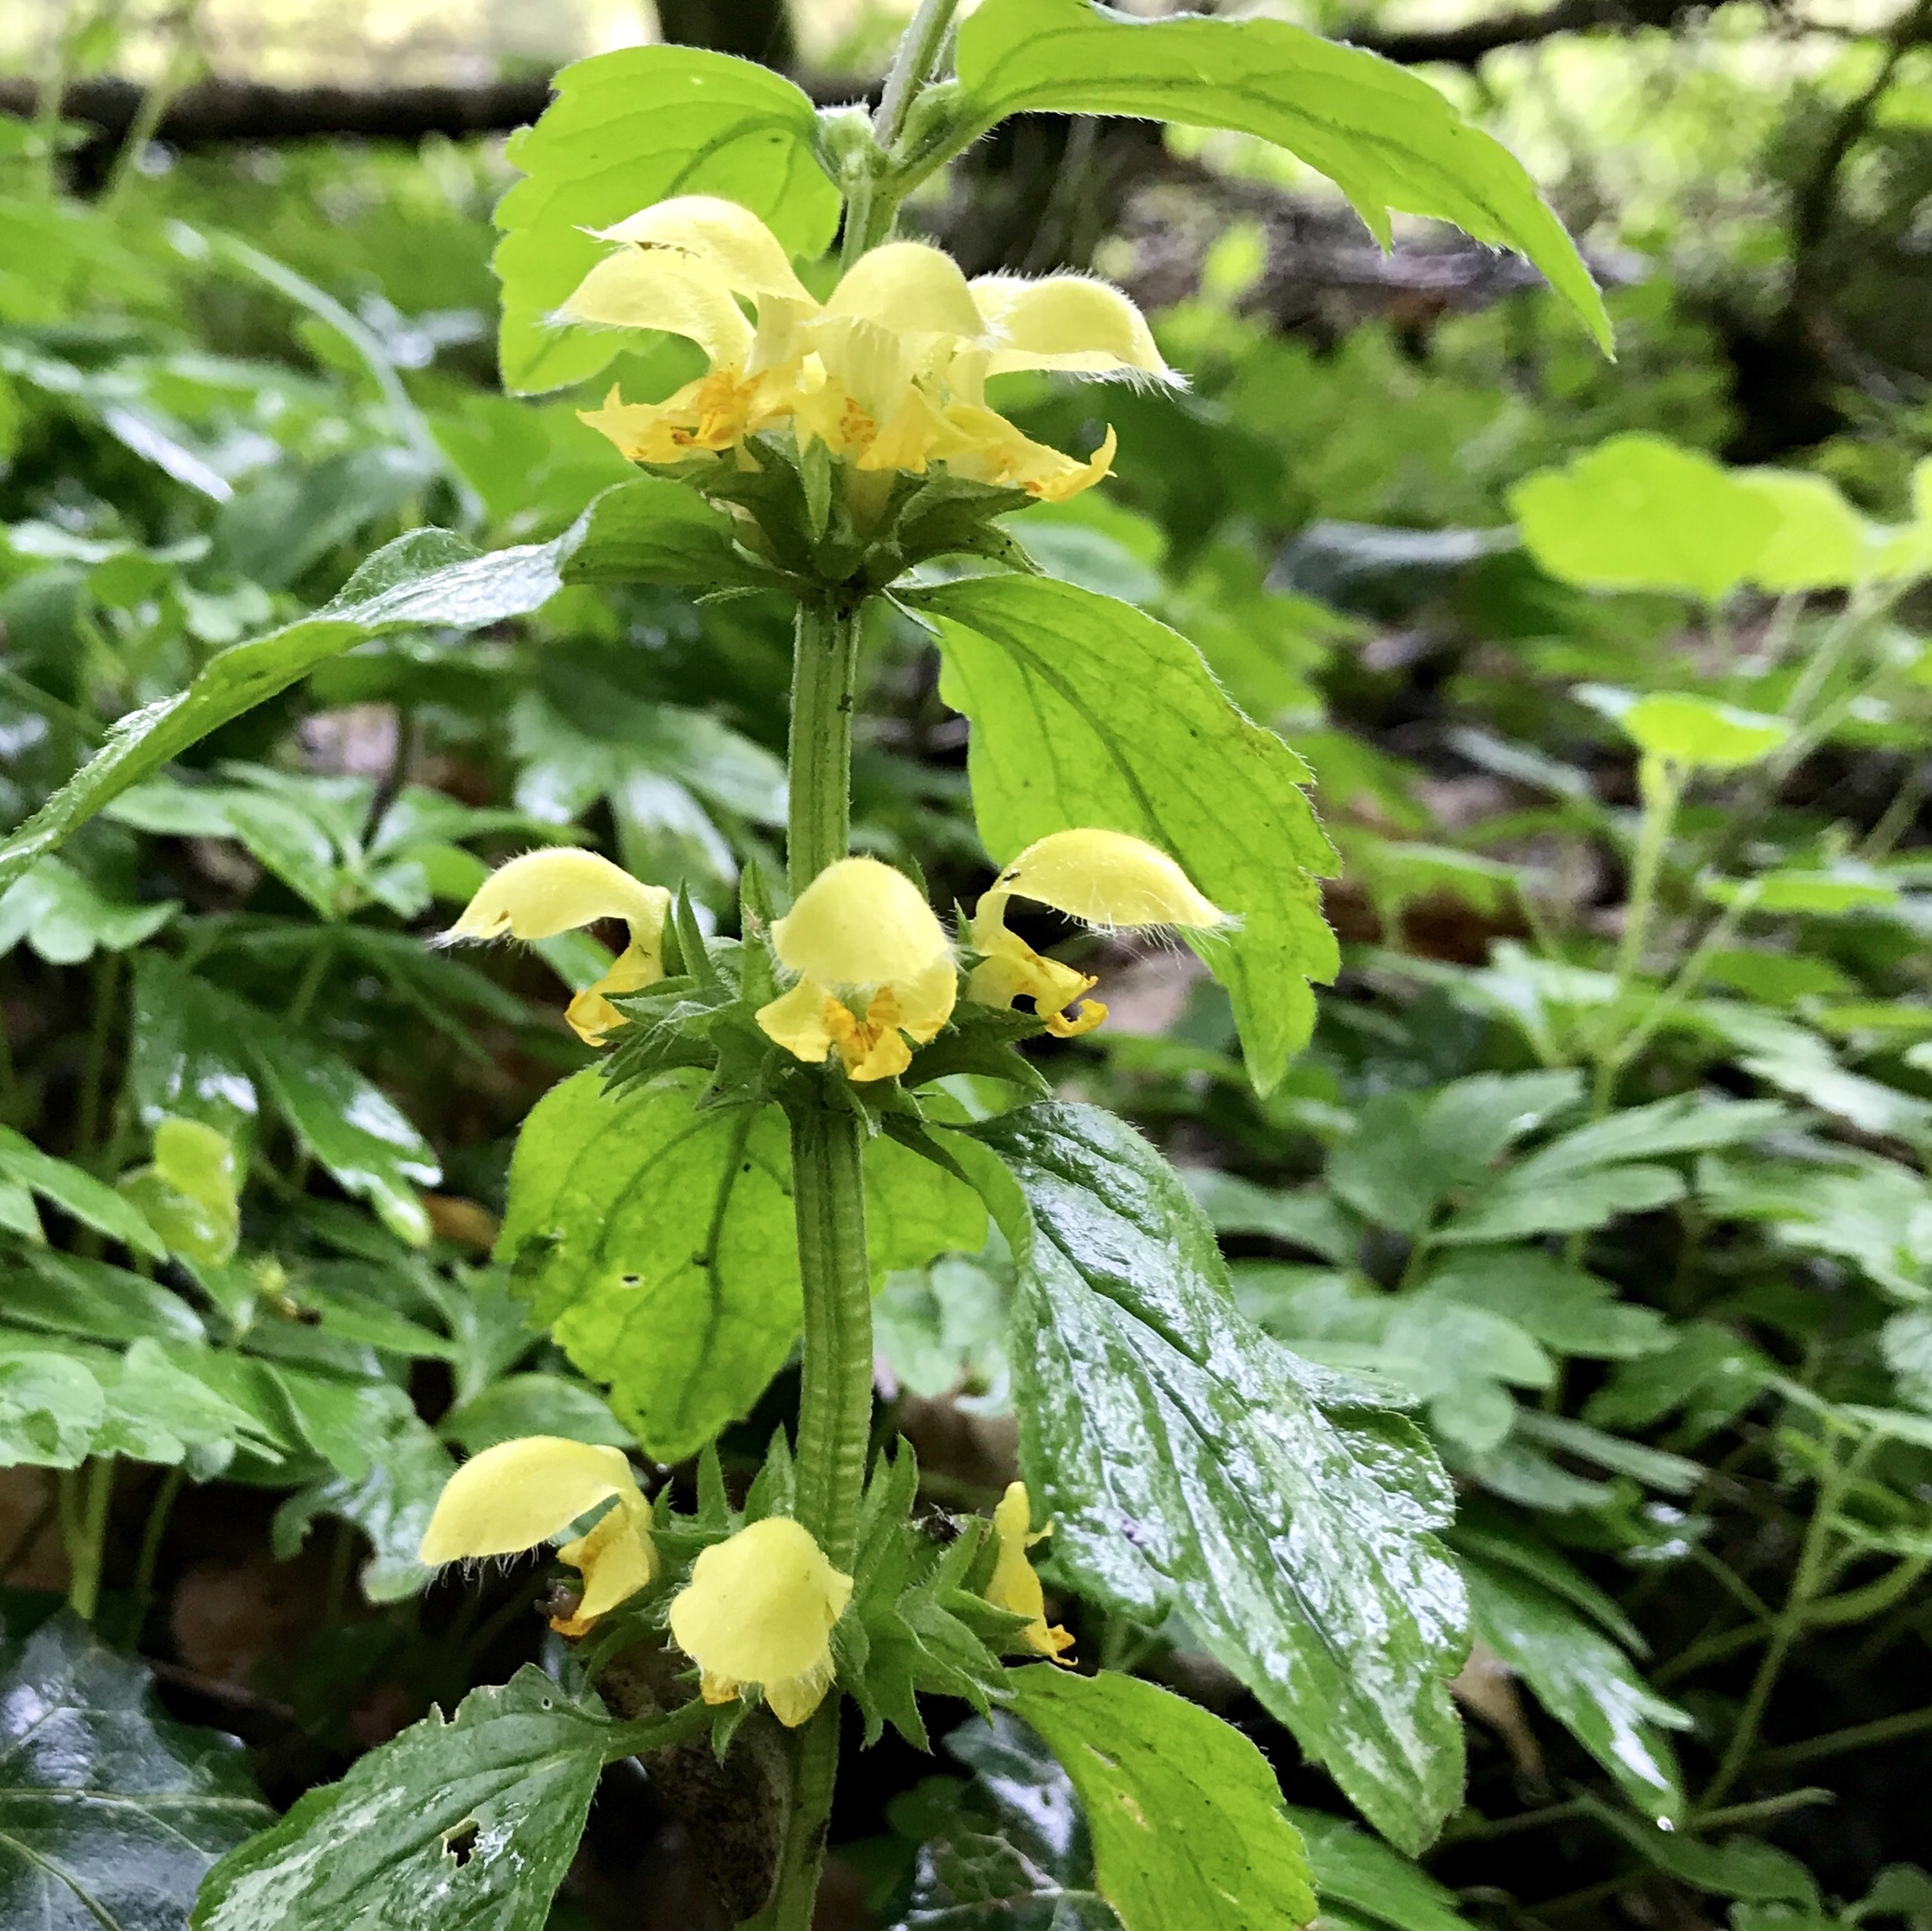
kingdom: Plantae
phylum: Tracheophyta
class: Magnoliopsida
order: Lamiales
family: Lamiaceae
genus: Lamium
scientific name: Lamium galeobdolon
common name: Yellow archangel
